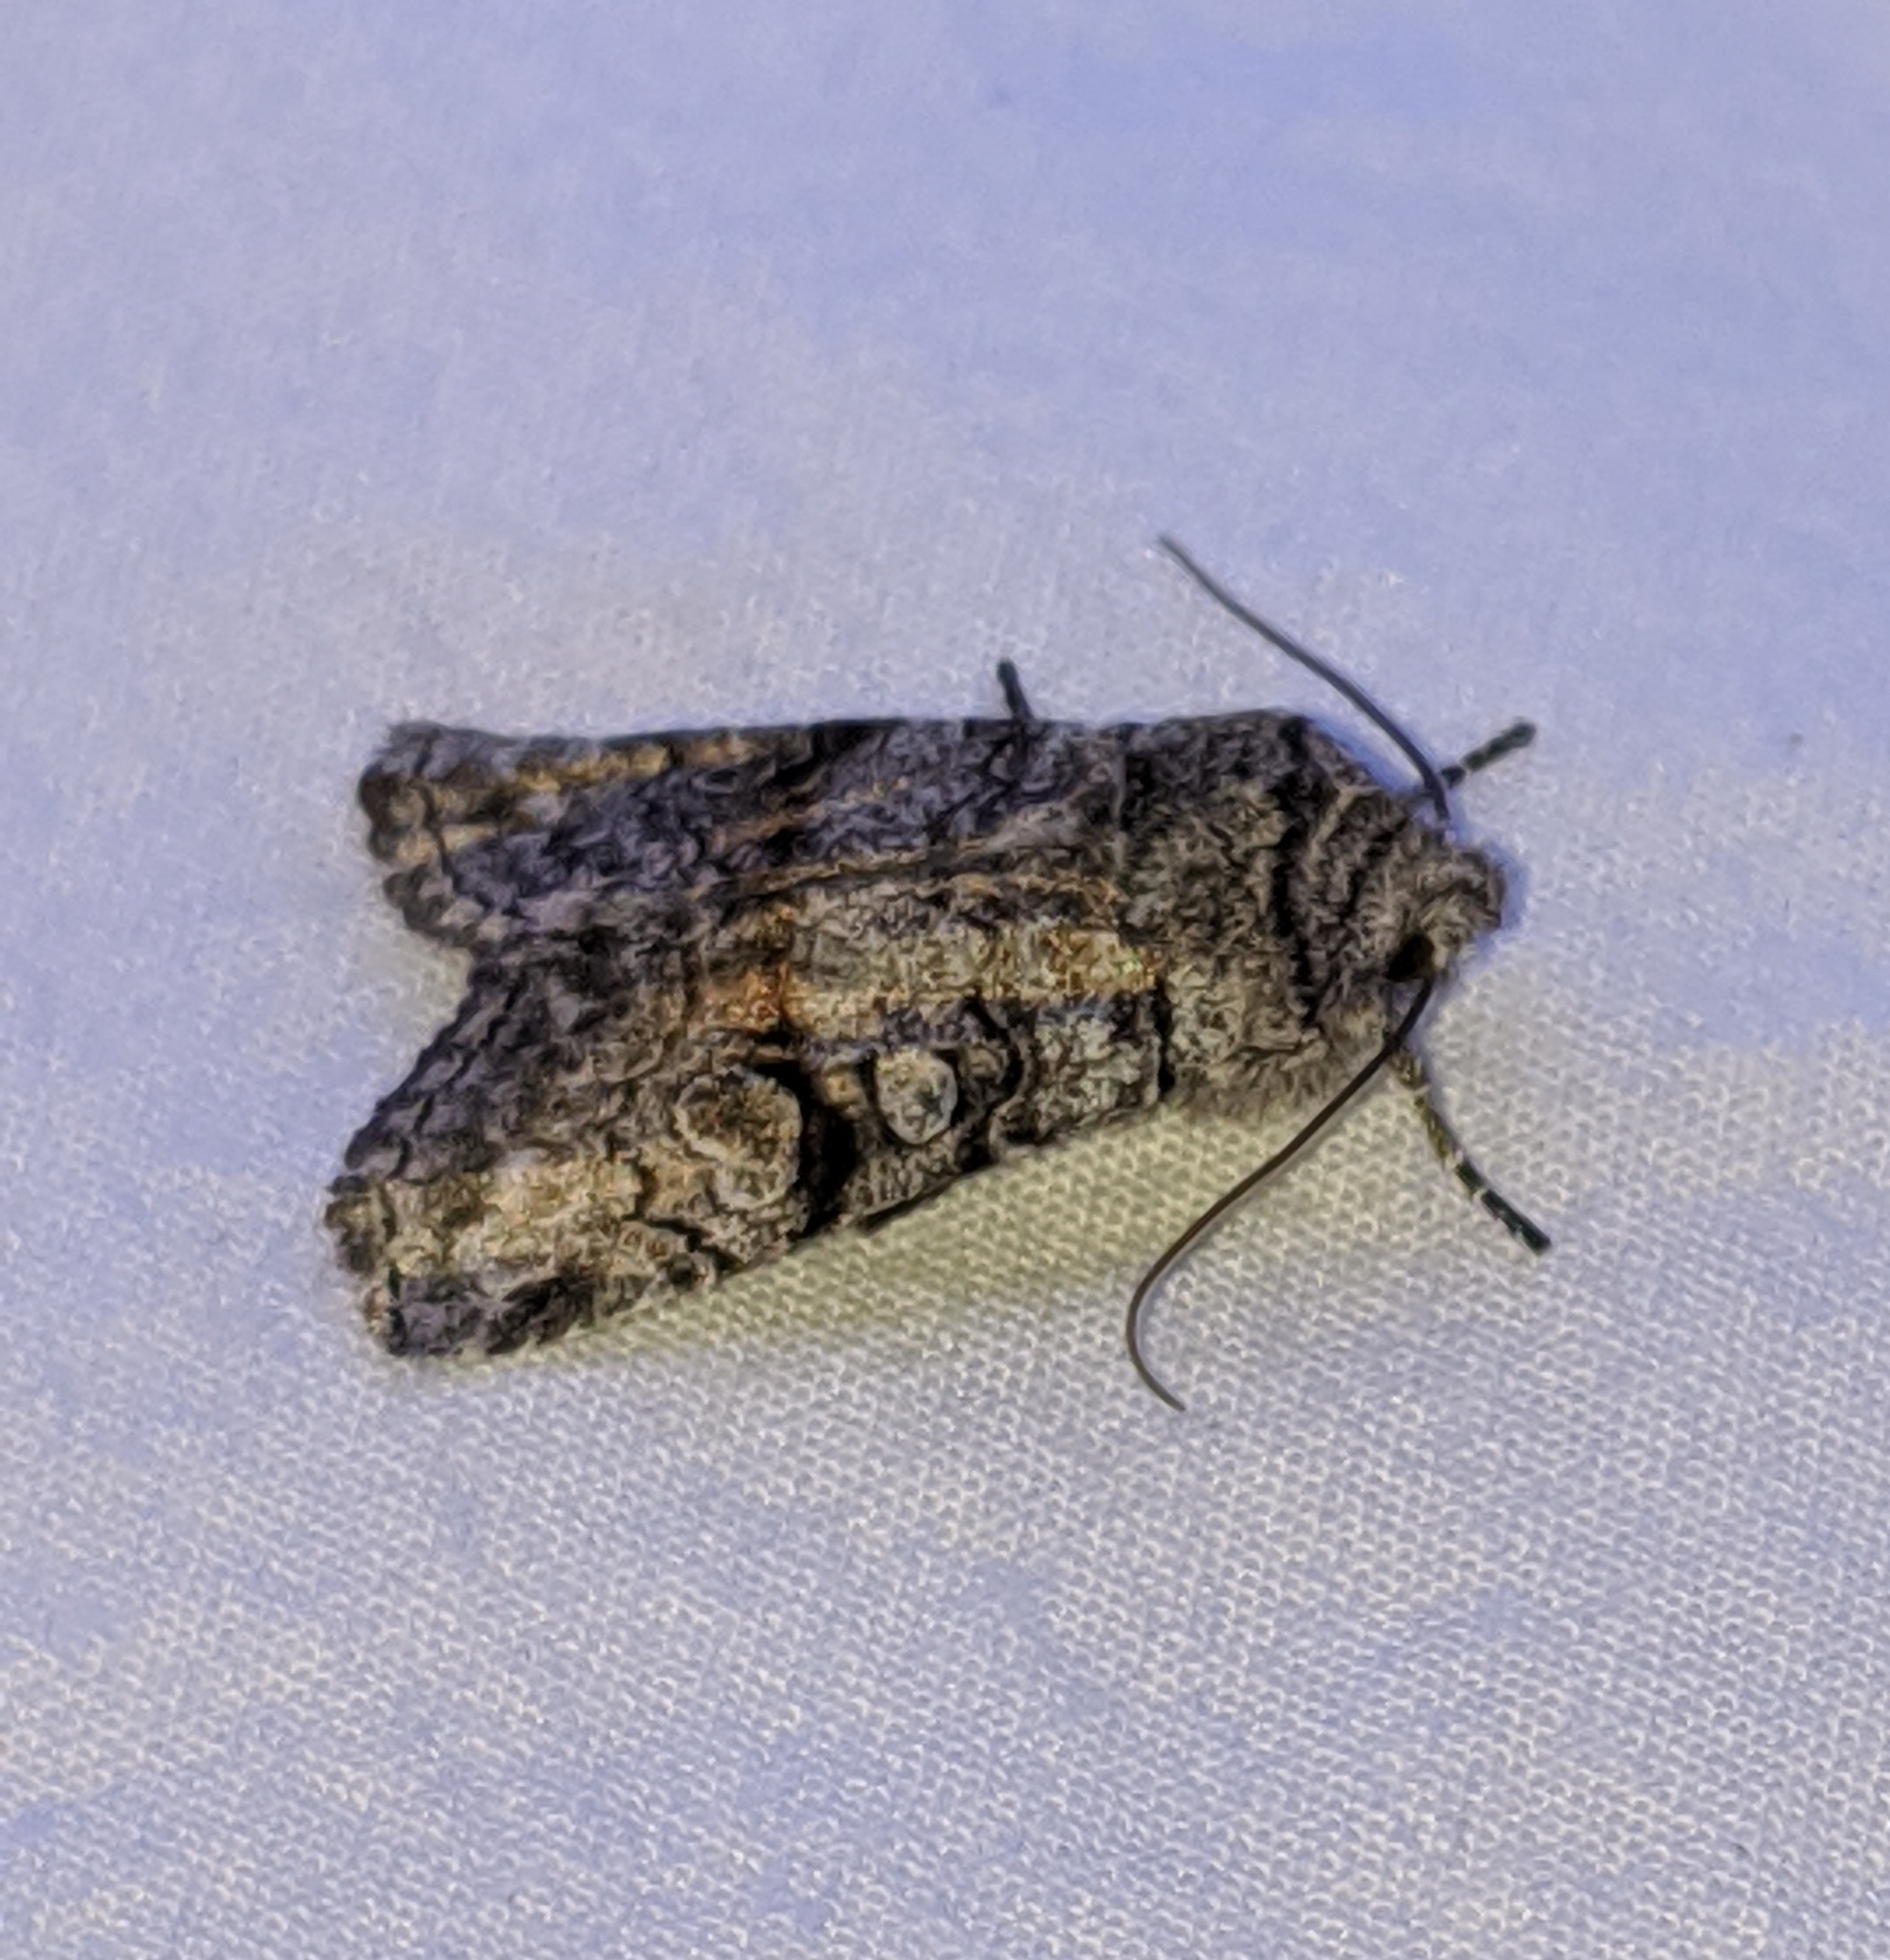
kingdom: Animalia
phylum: Arthropoda
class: Insecta
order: Lepidoptera
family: Noctuidae
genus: Litholomia
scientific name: Litholomia napaea
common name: False pinion moth
